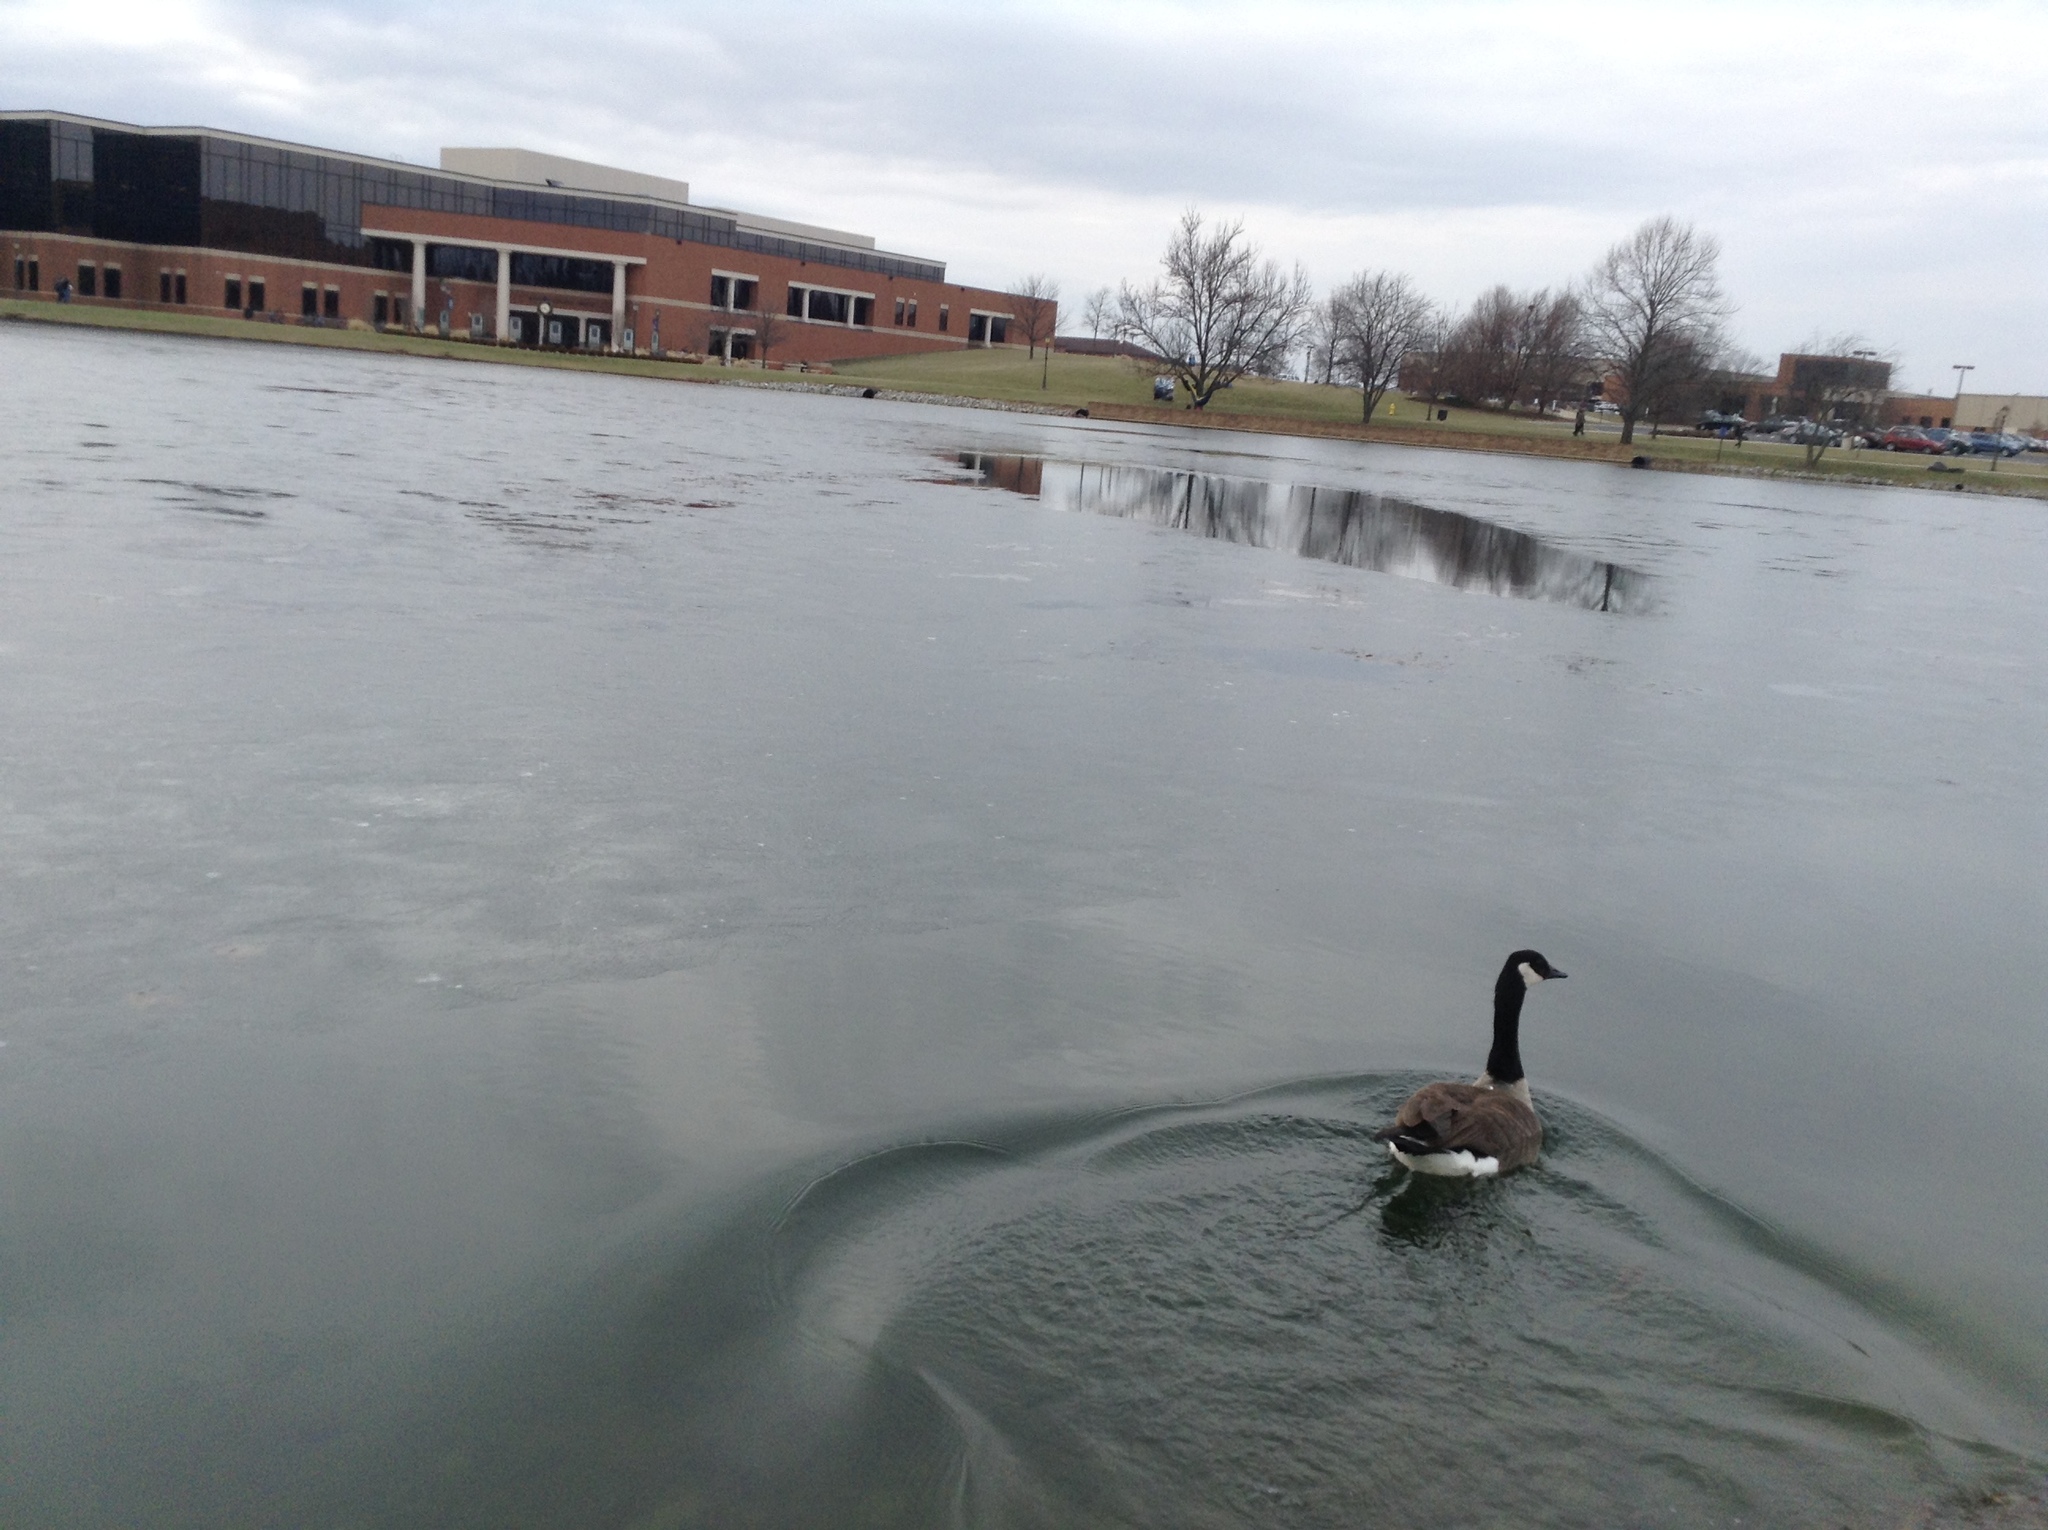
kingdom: Animalia
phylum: Chordata
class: Aves
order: Anseriformes
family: Anatidae
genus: Branta
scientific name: Branta canadensis
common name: Canada goose
